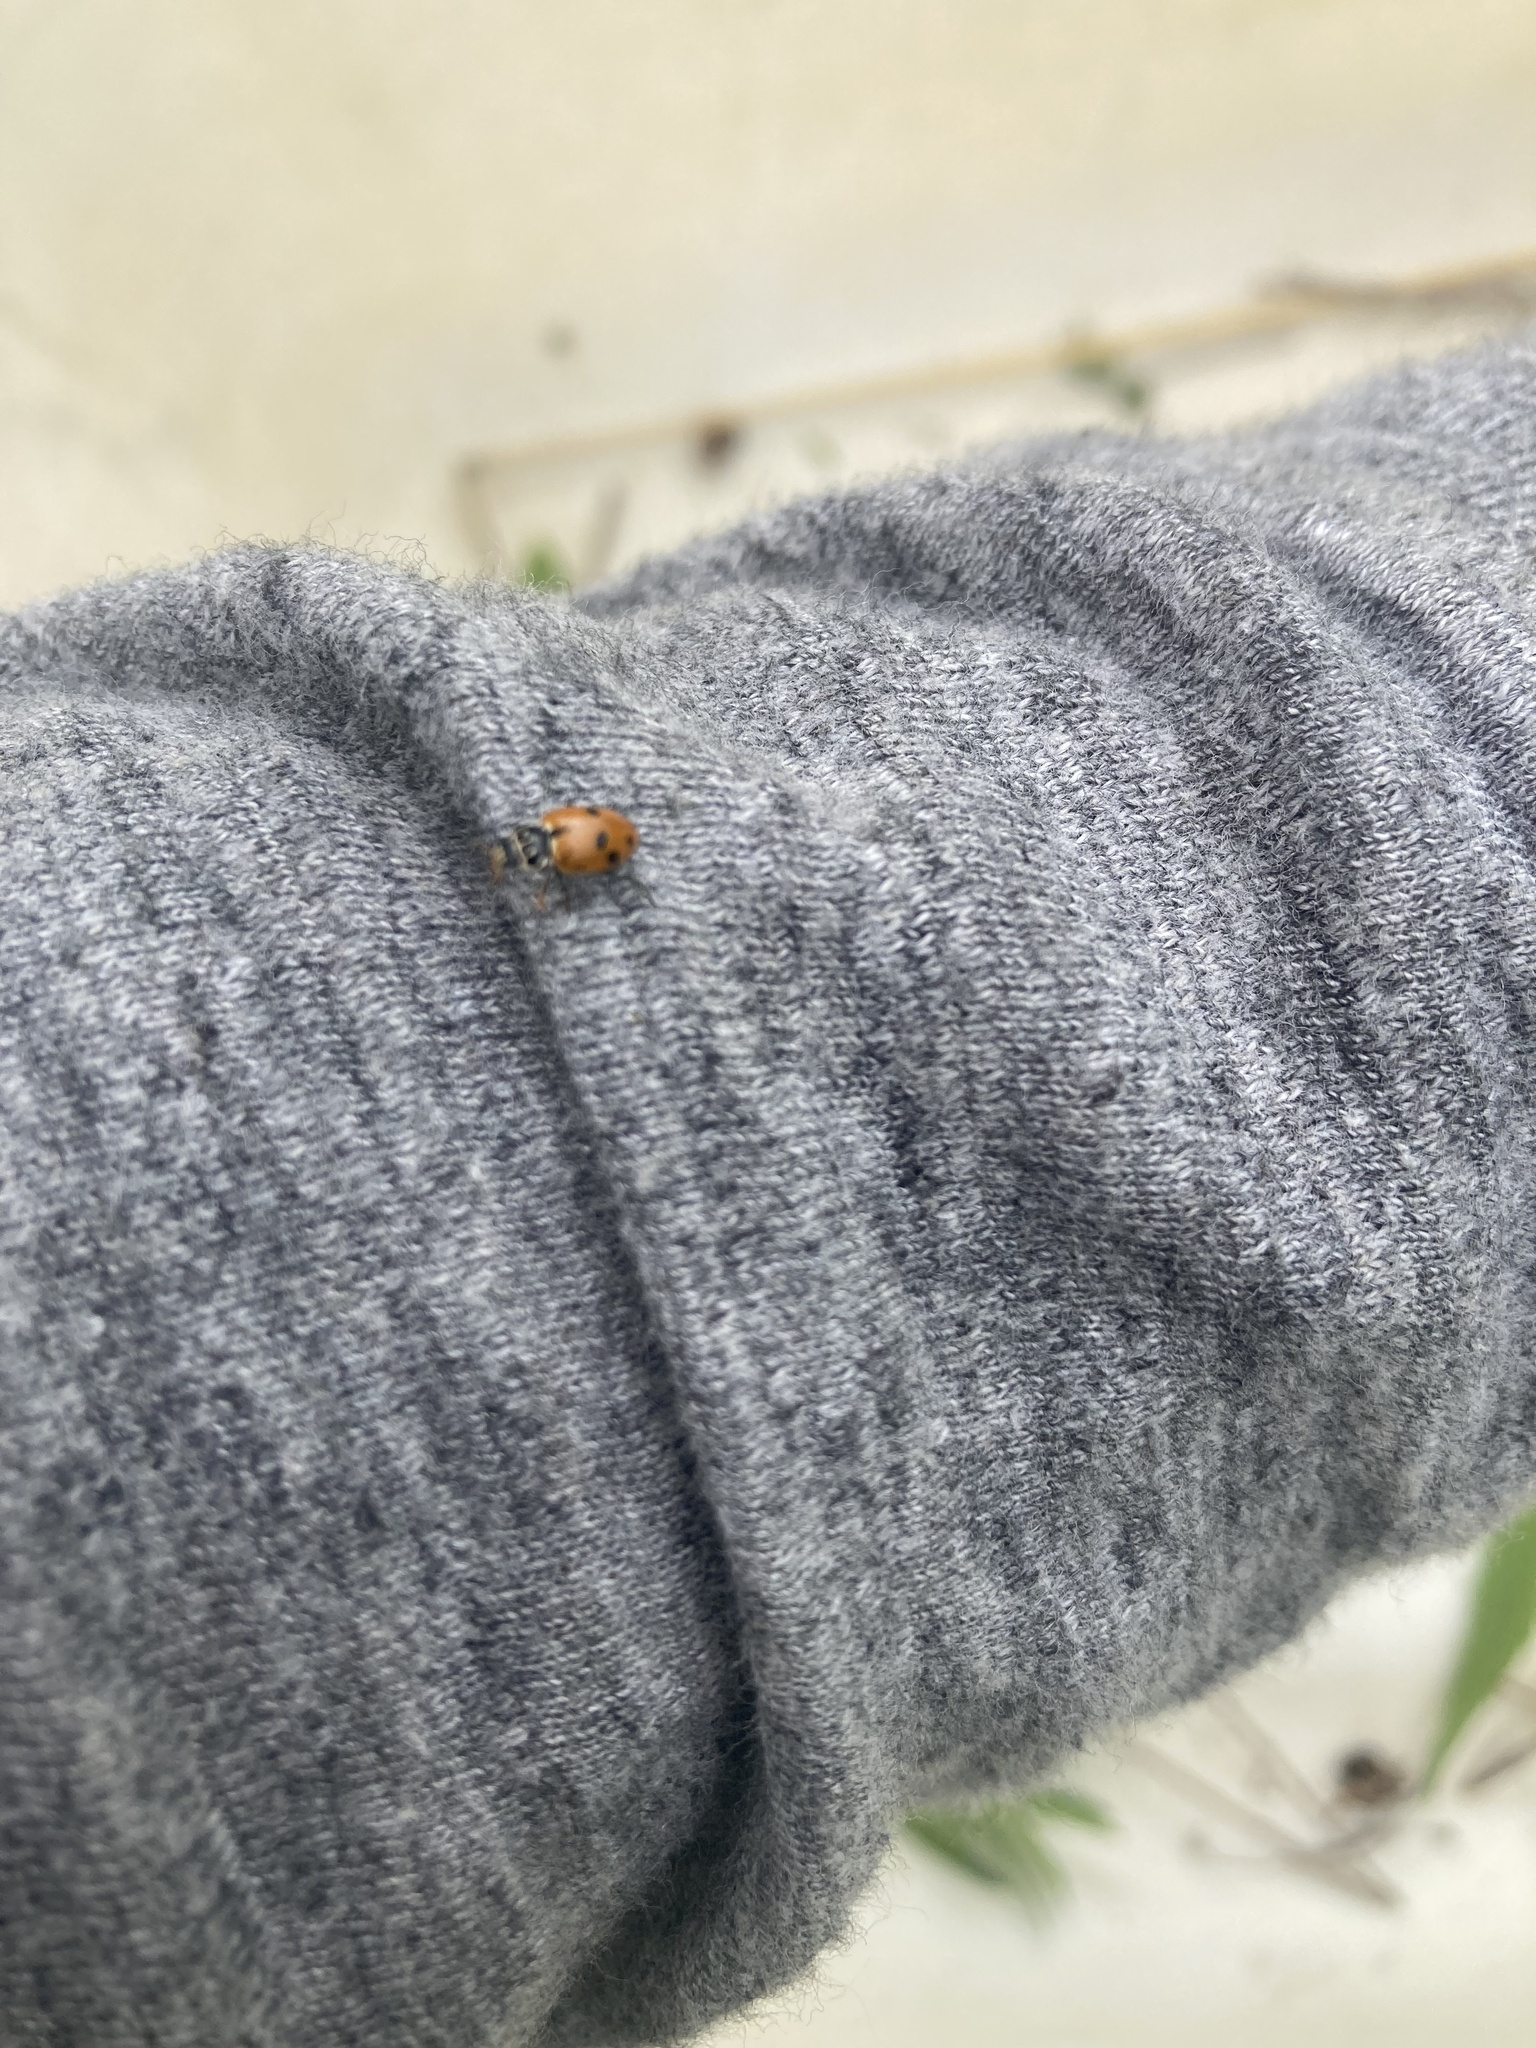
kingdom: Animalia
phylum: Arthropoda
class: Insecta
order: Coleoptera
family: Coccinellidae
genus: Hippodamia
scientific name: Hippodamia variegata
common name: Ladybird beetle
